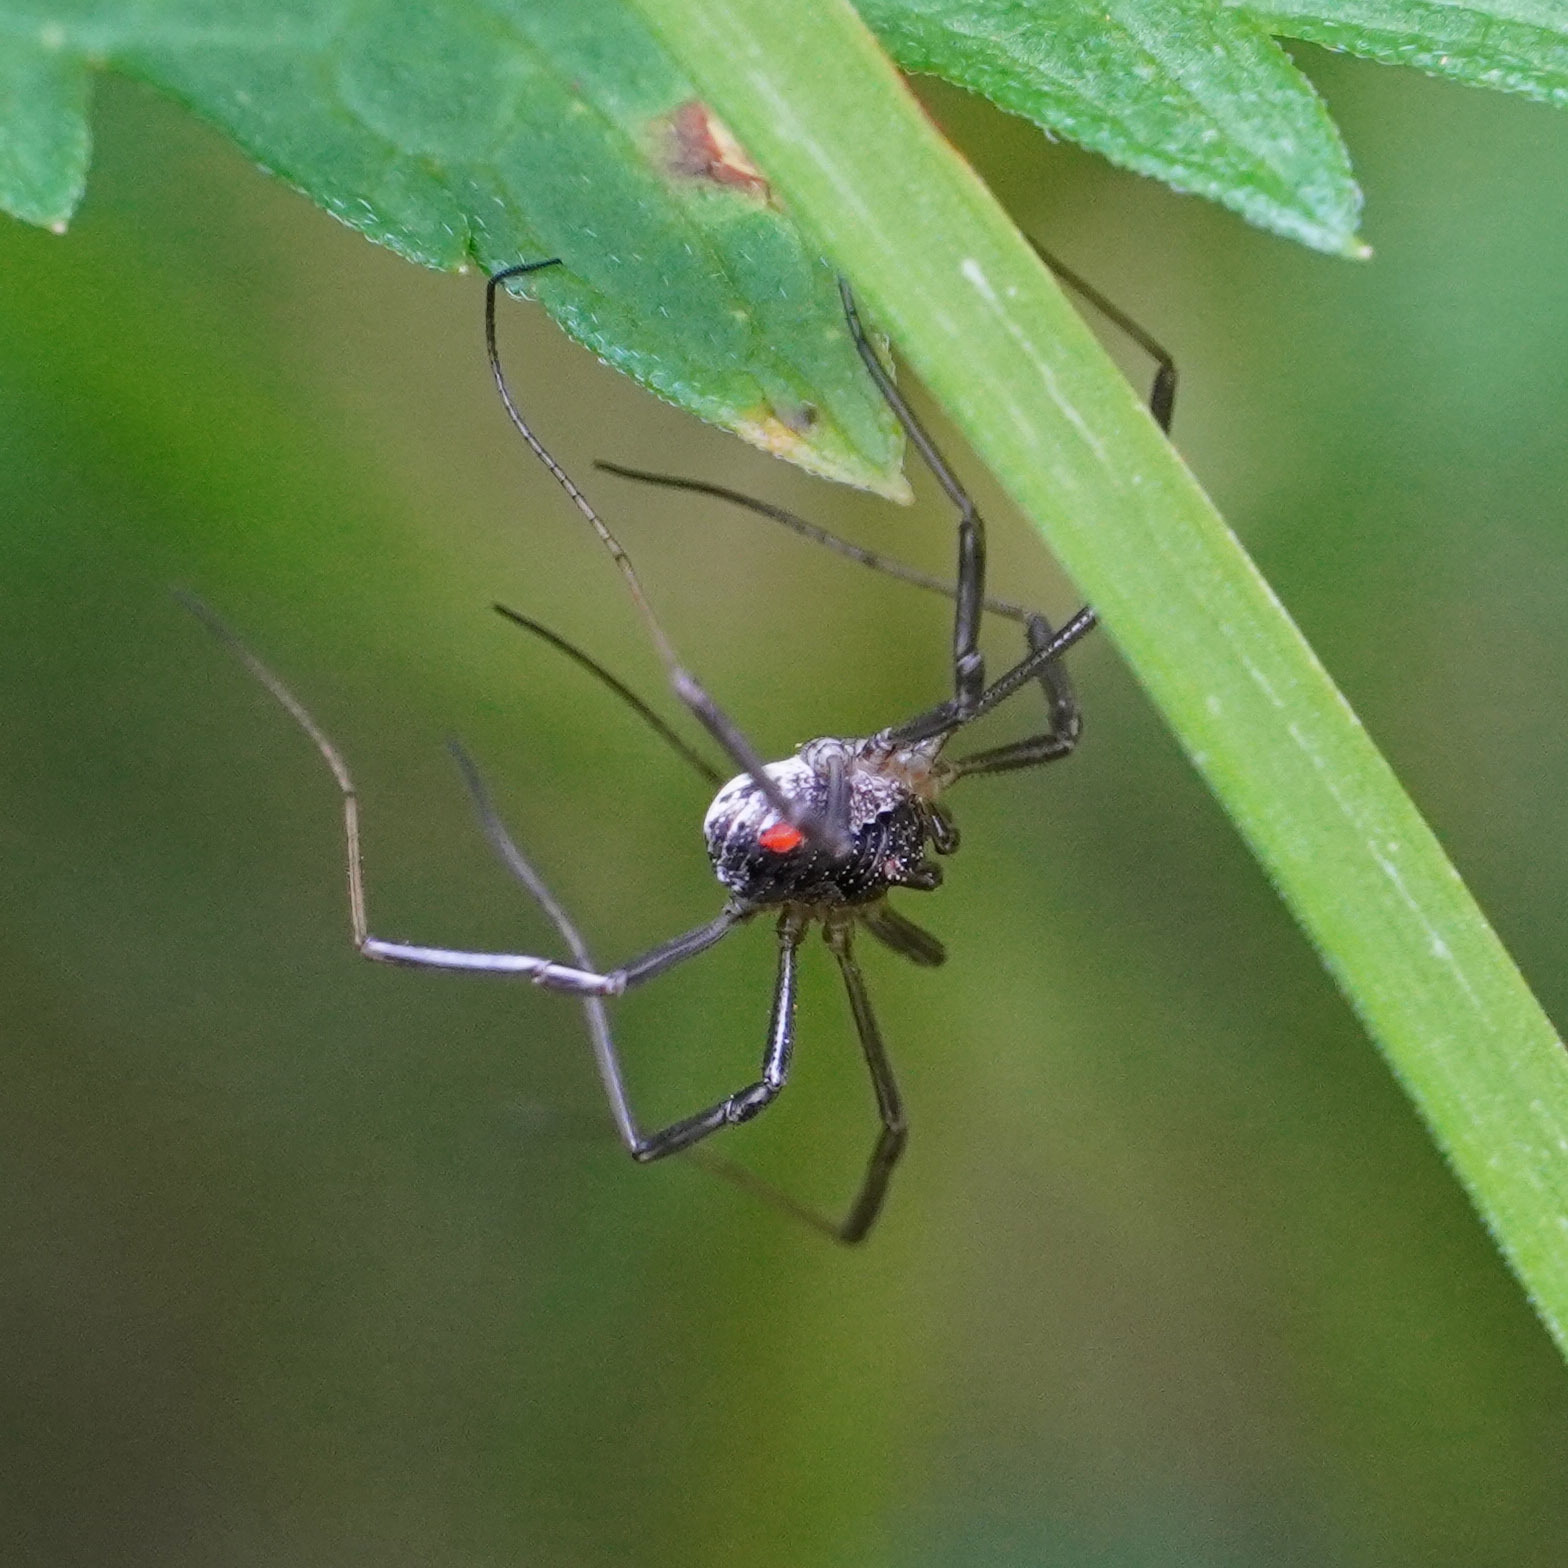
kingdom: Animalia
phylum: Arthropoda
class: Arachnida
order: Opiliones
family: Phalangiidae
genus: Mitopus
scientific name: Mitopus morio
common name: Saddleback harvestman
